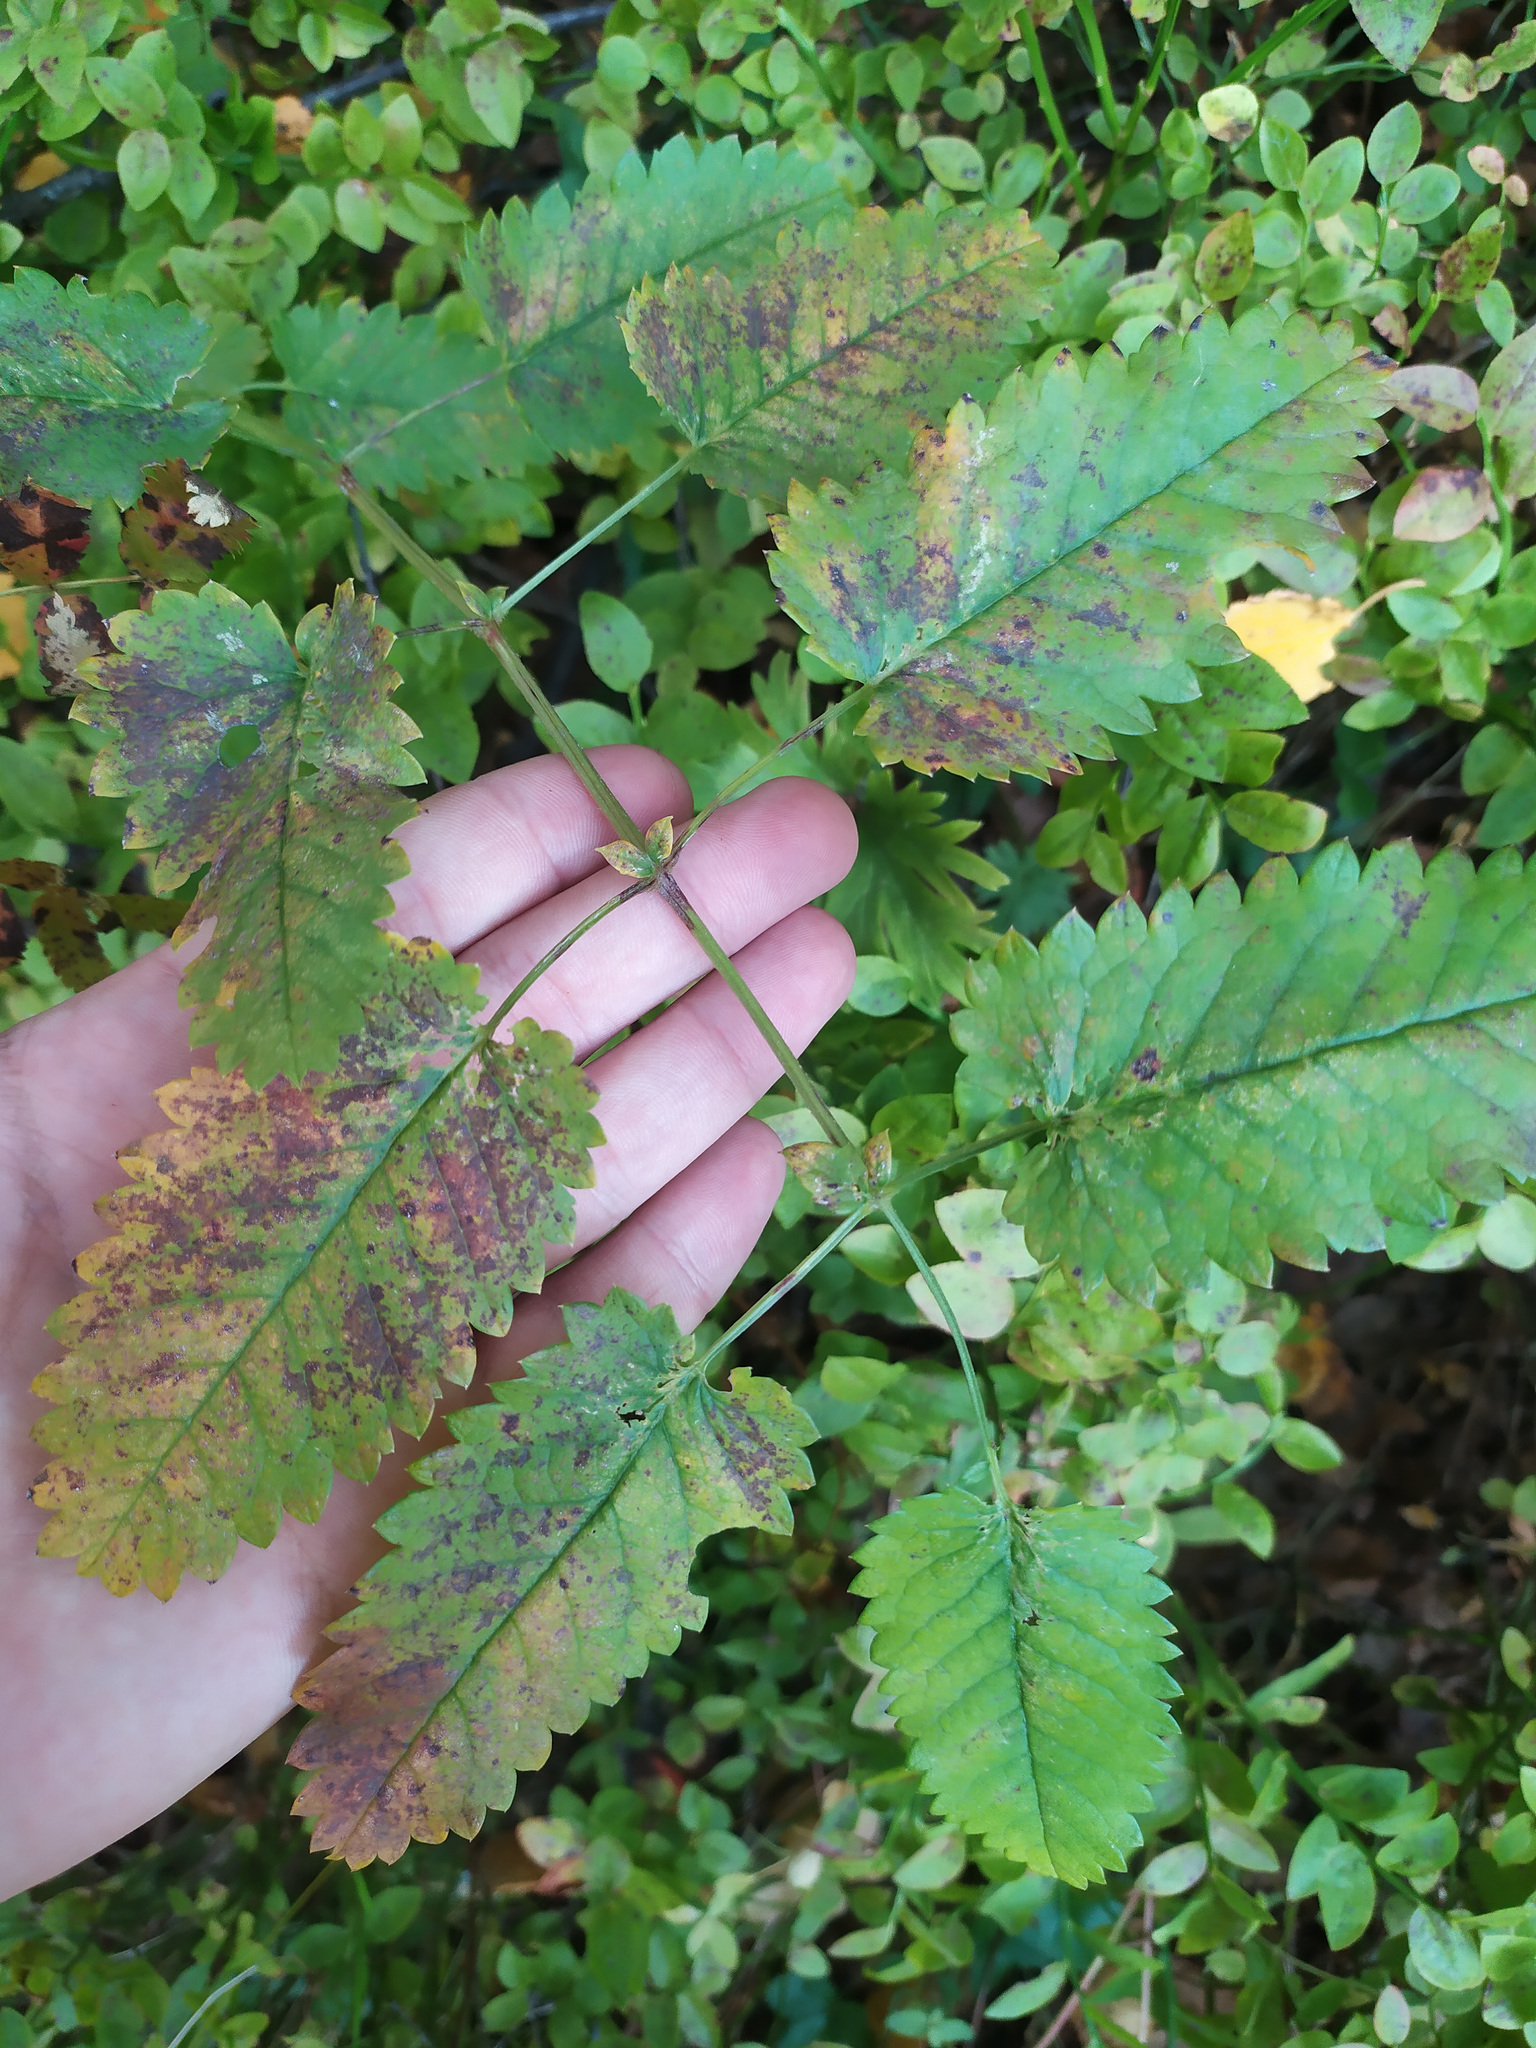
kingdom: Plantae
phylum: Tracheophyta
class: Magnoliopsida
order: Rosales
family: Rosaceae
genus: Sanguisorba
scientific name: Sanguisorba officinalis
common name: Great burnet
